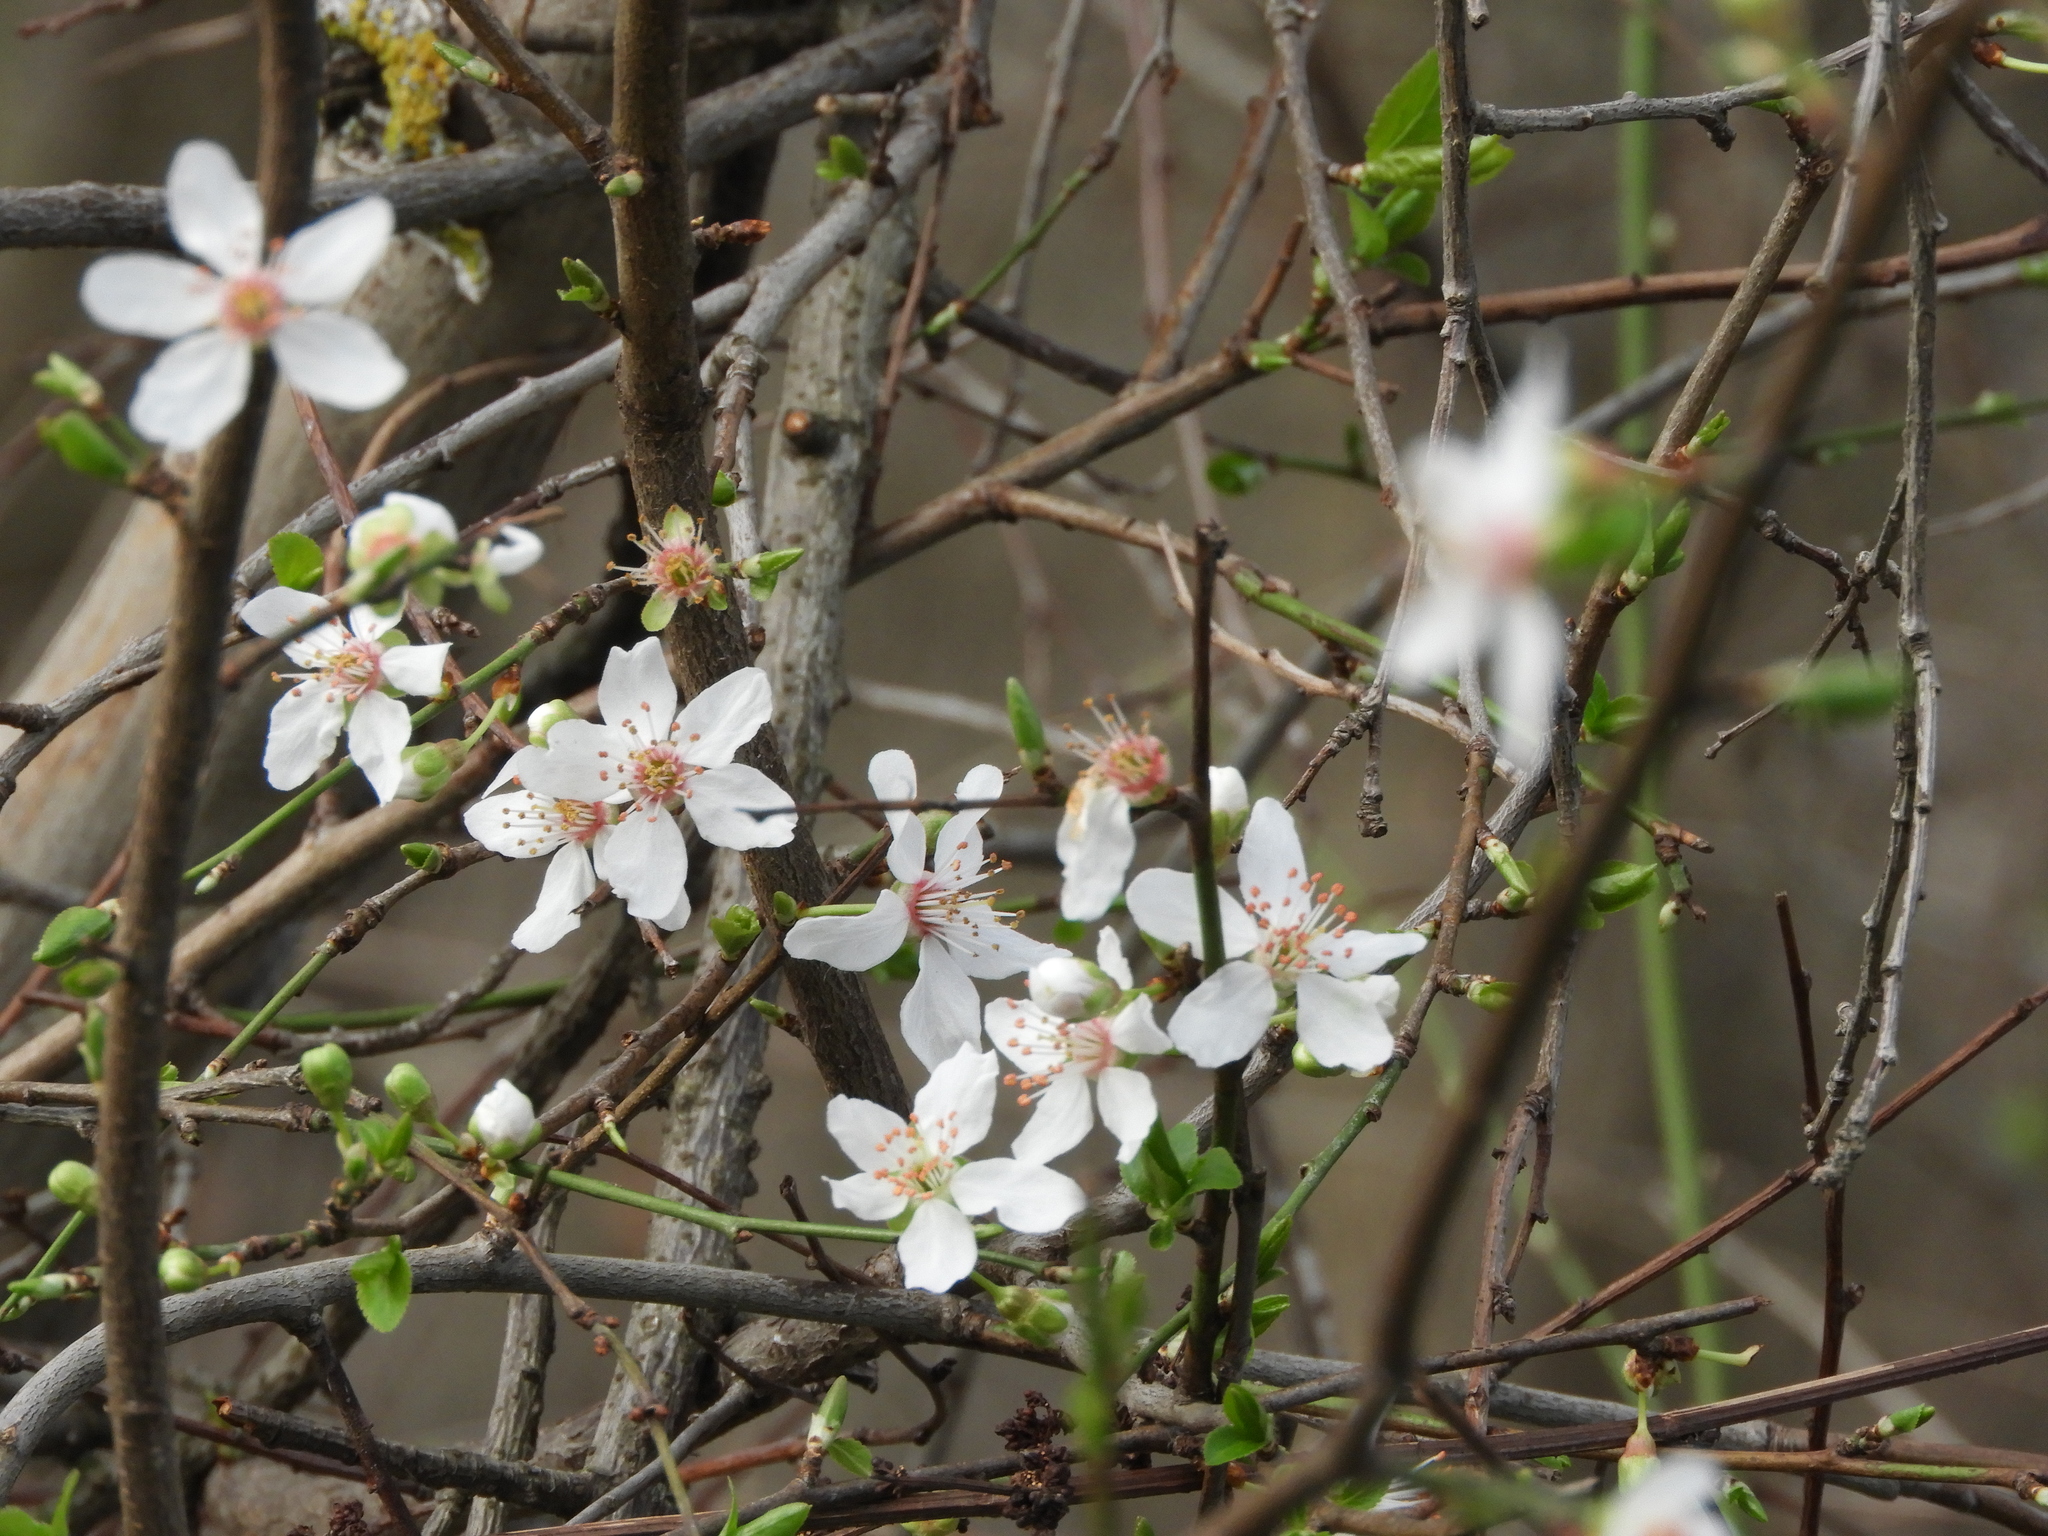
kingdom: Plantae
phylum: Tracheophyta
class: Magnoliopsida
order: Rosales
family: Rosaceae
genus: Prunus
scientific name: Prunus cerasifera
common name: Cherry plum
